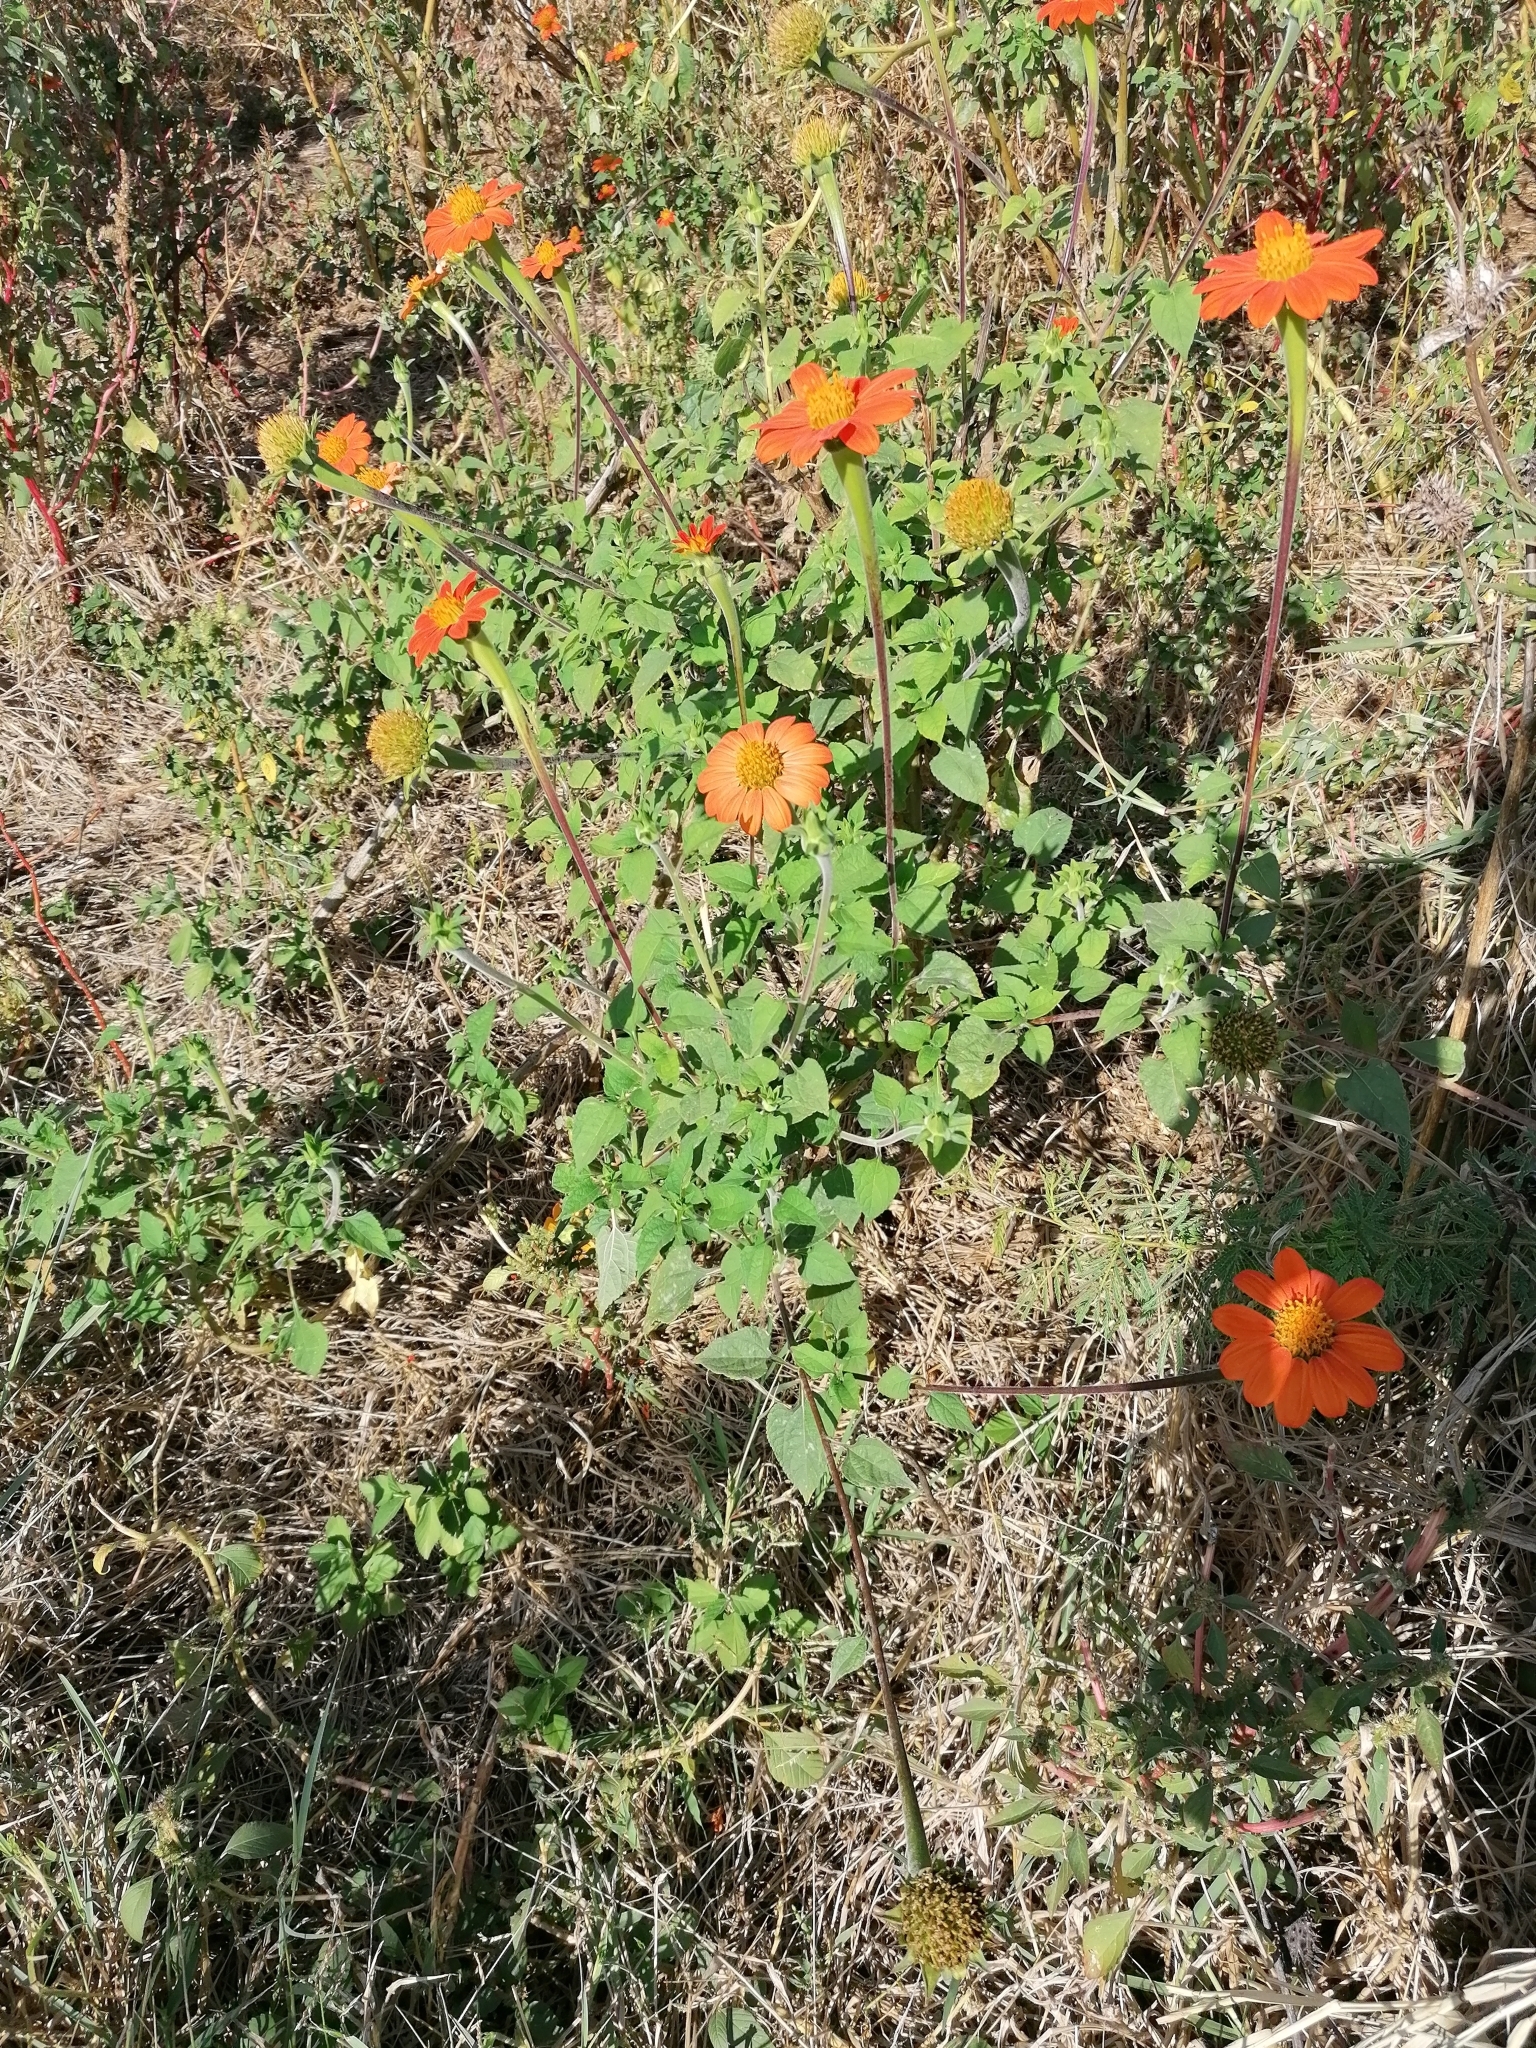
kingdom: Plantae
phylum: Tracheophyta
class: Magnoliopsida
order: Asterales
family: Asteraceae
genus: Tithonia
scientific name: Tithonia rotundifolia
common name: Sunflower
